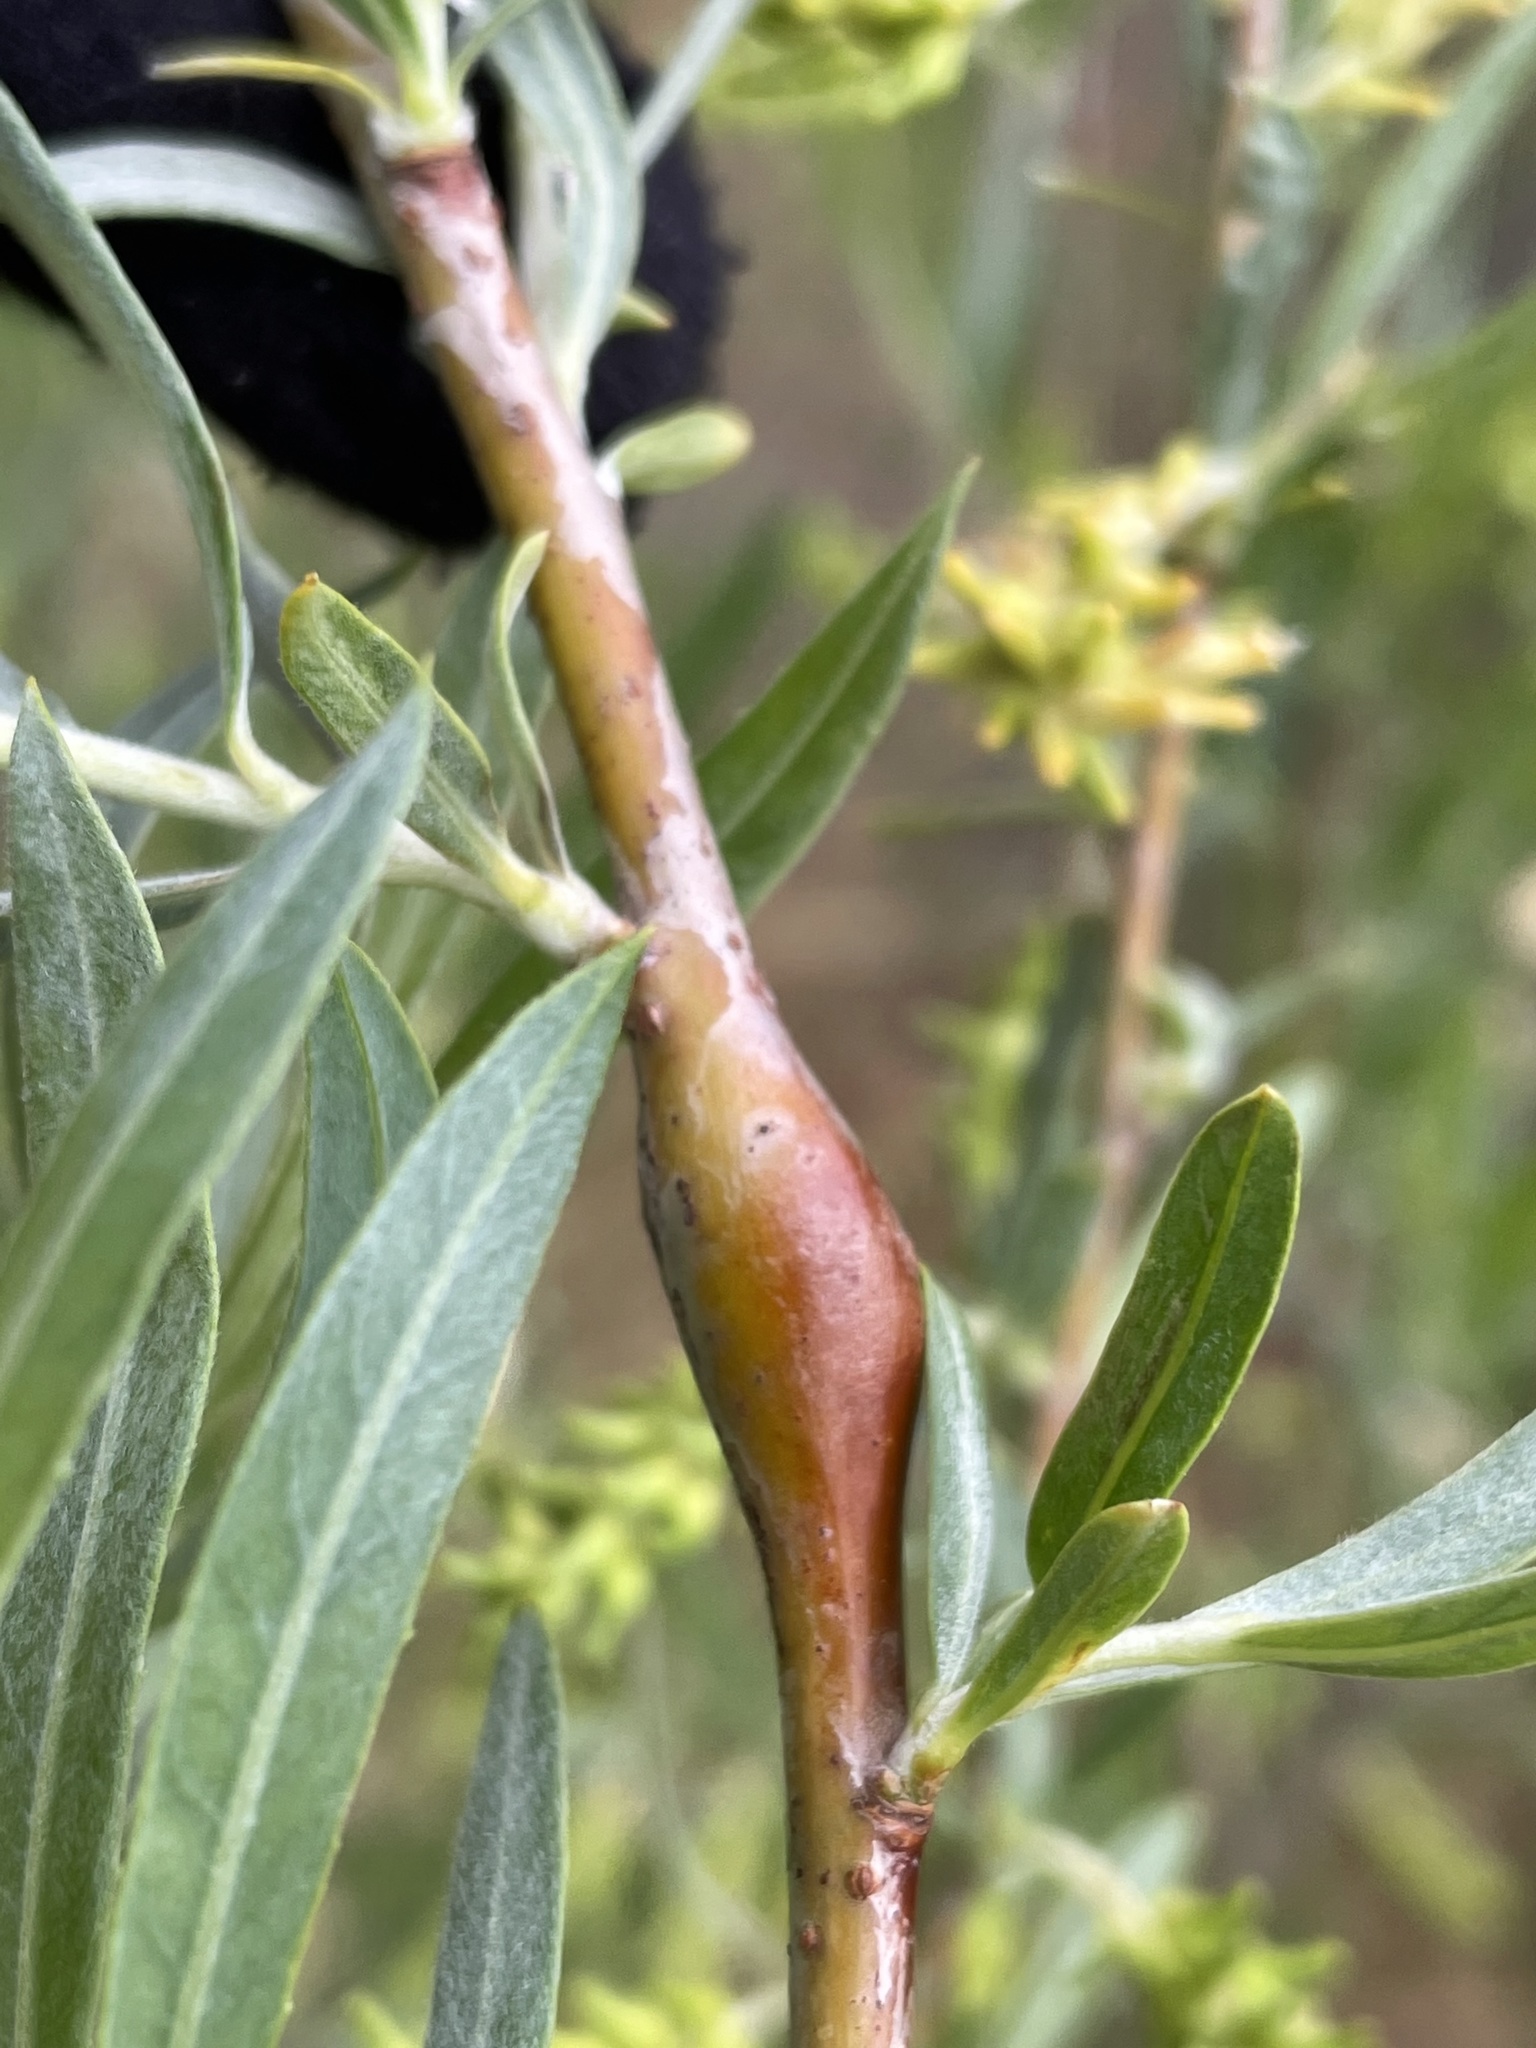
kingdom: Animalia
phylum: Arthropoda
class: Insecta
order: Hymenoptera
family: Tenthredinidae
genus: Euura
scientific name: Euura
